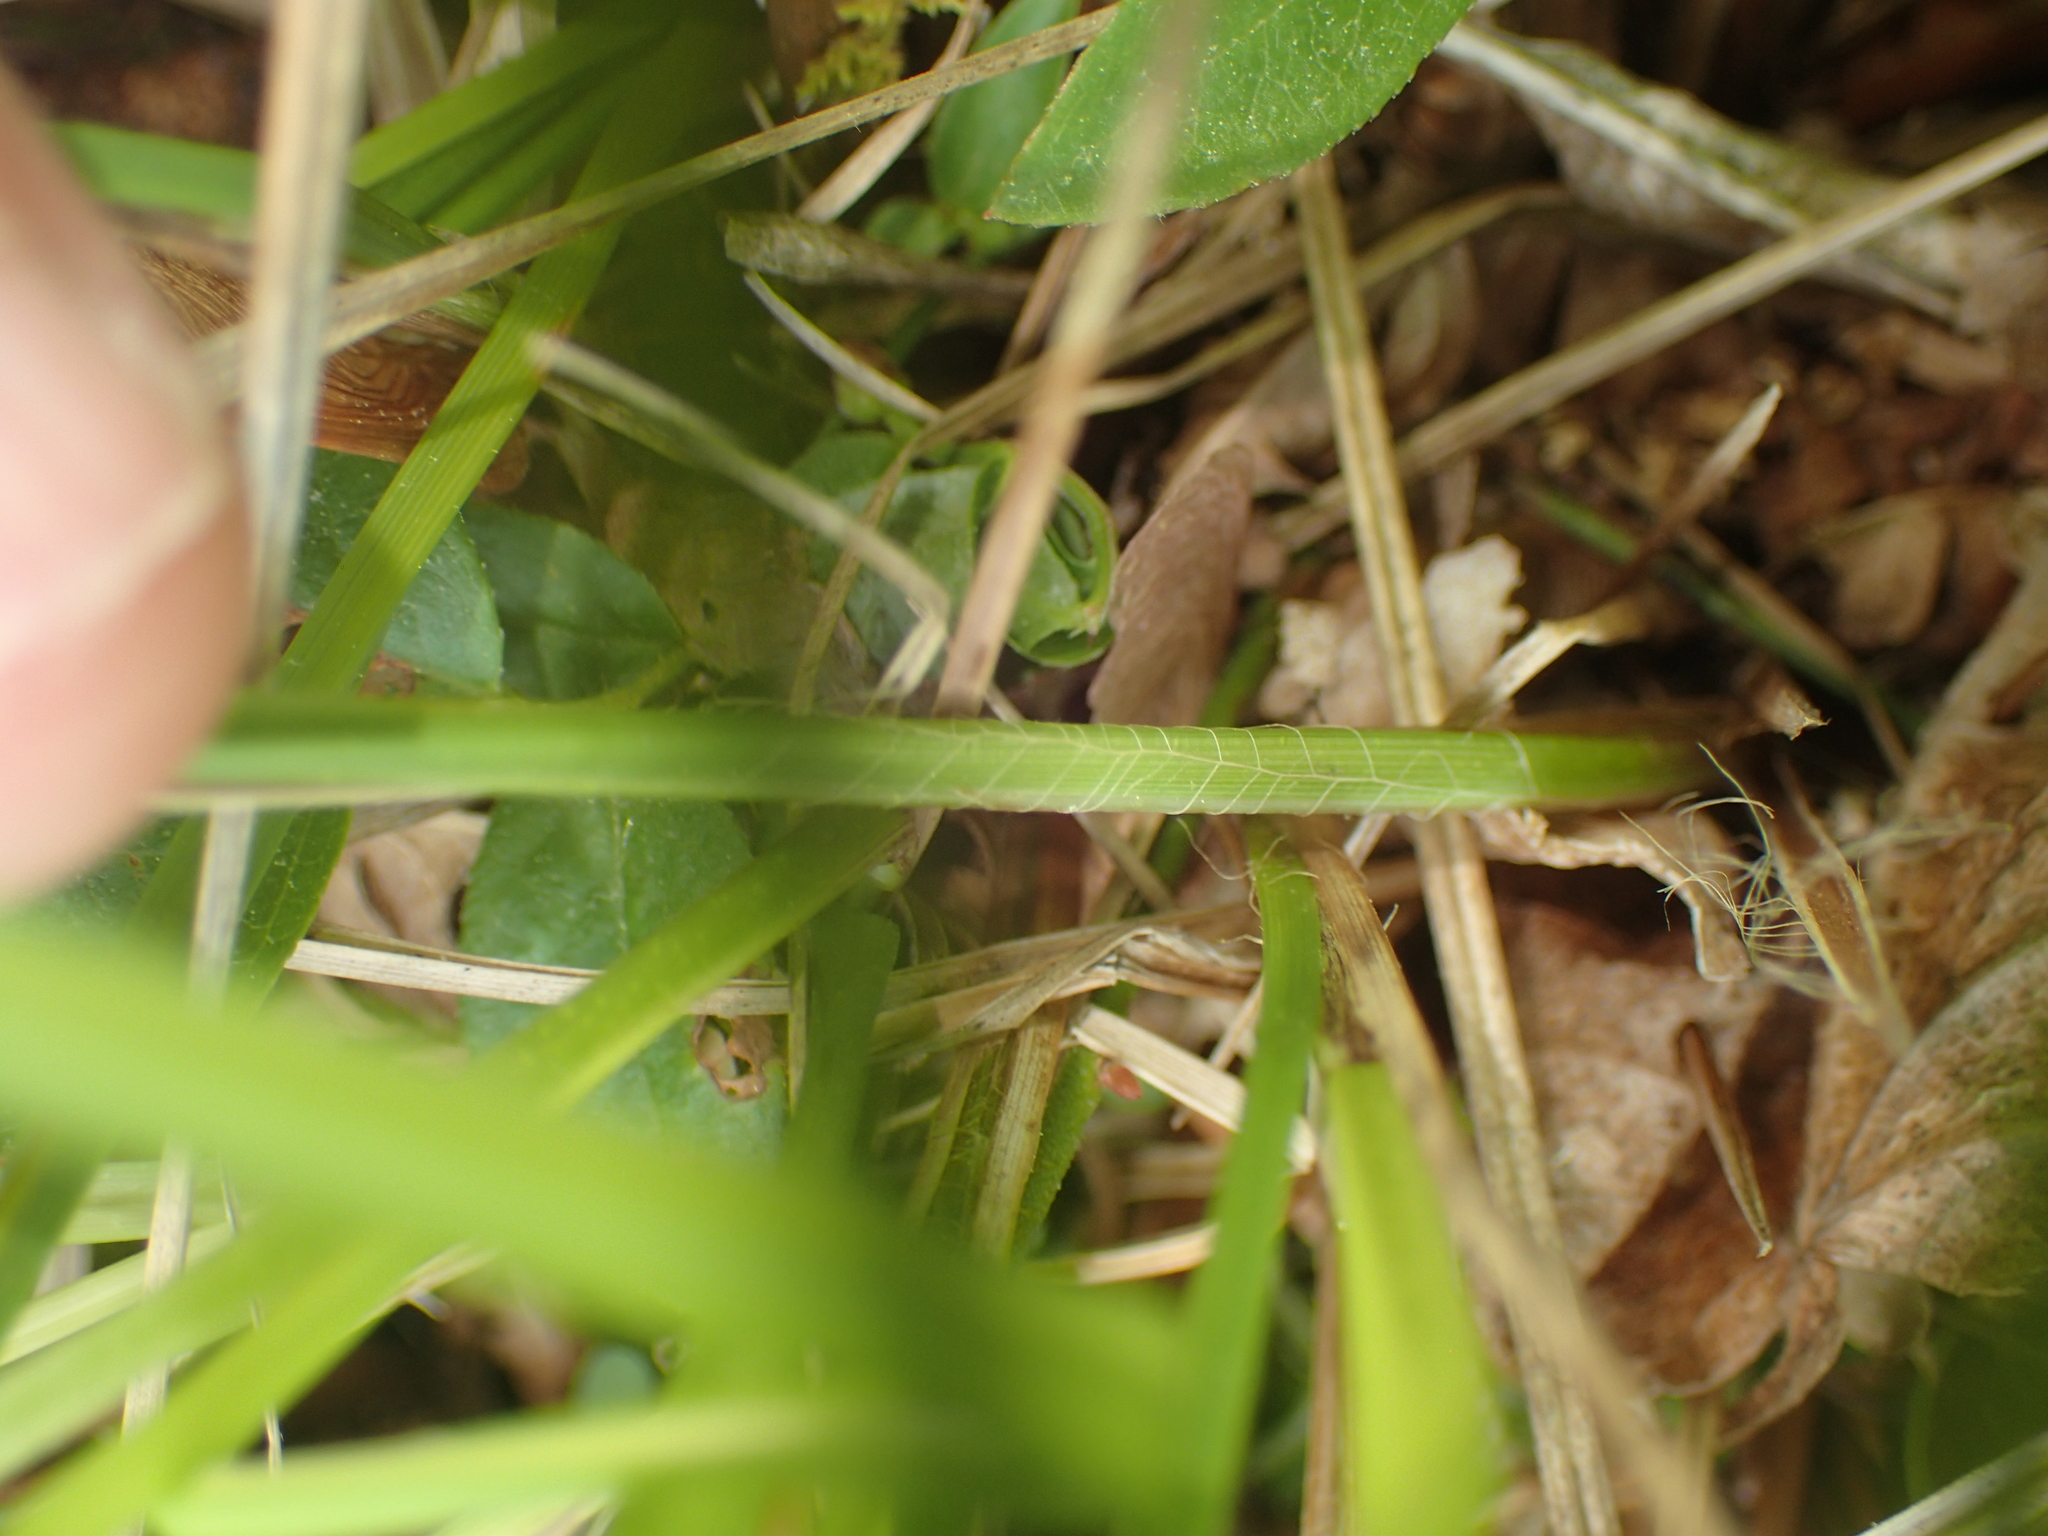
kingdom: Plantae
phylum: Tracheophyta
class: Liliopsida
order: Poales
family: Cyperaceae
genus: Carex
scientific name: Carex stricta
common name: Hummock sedge
